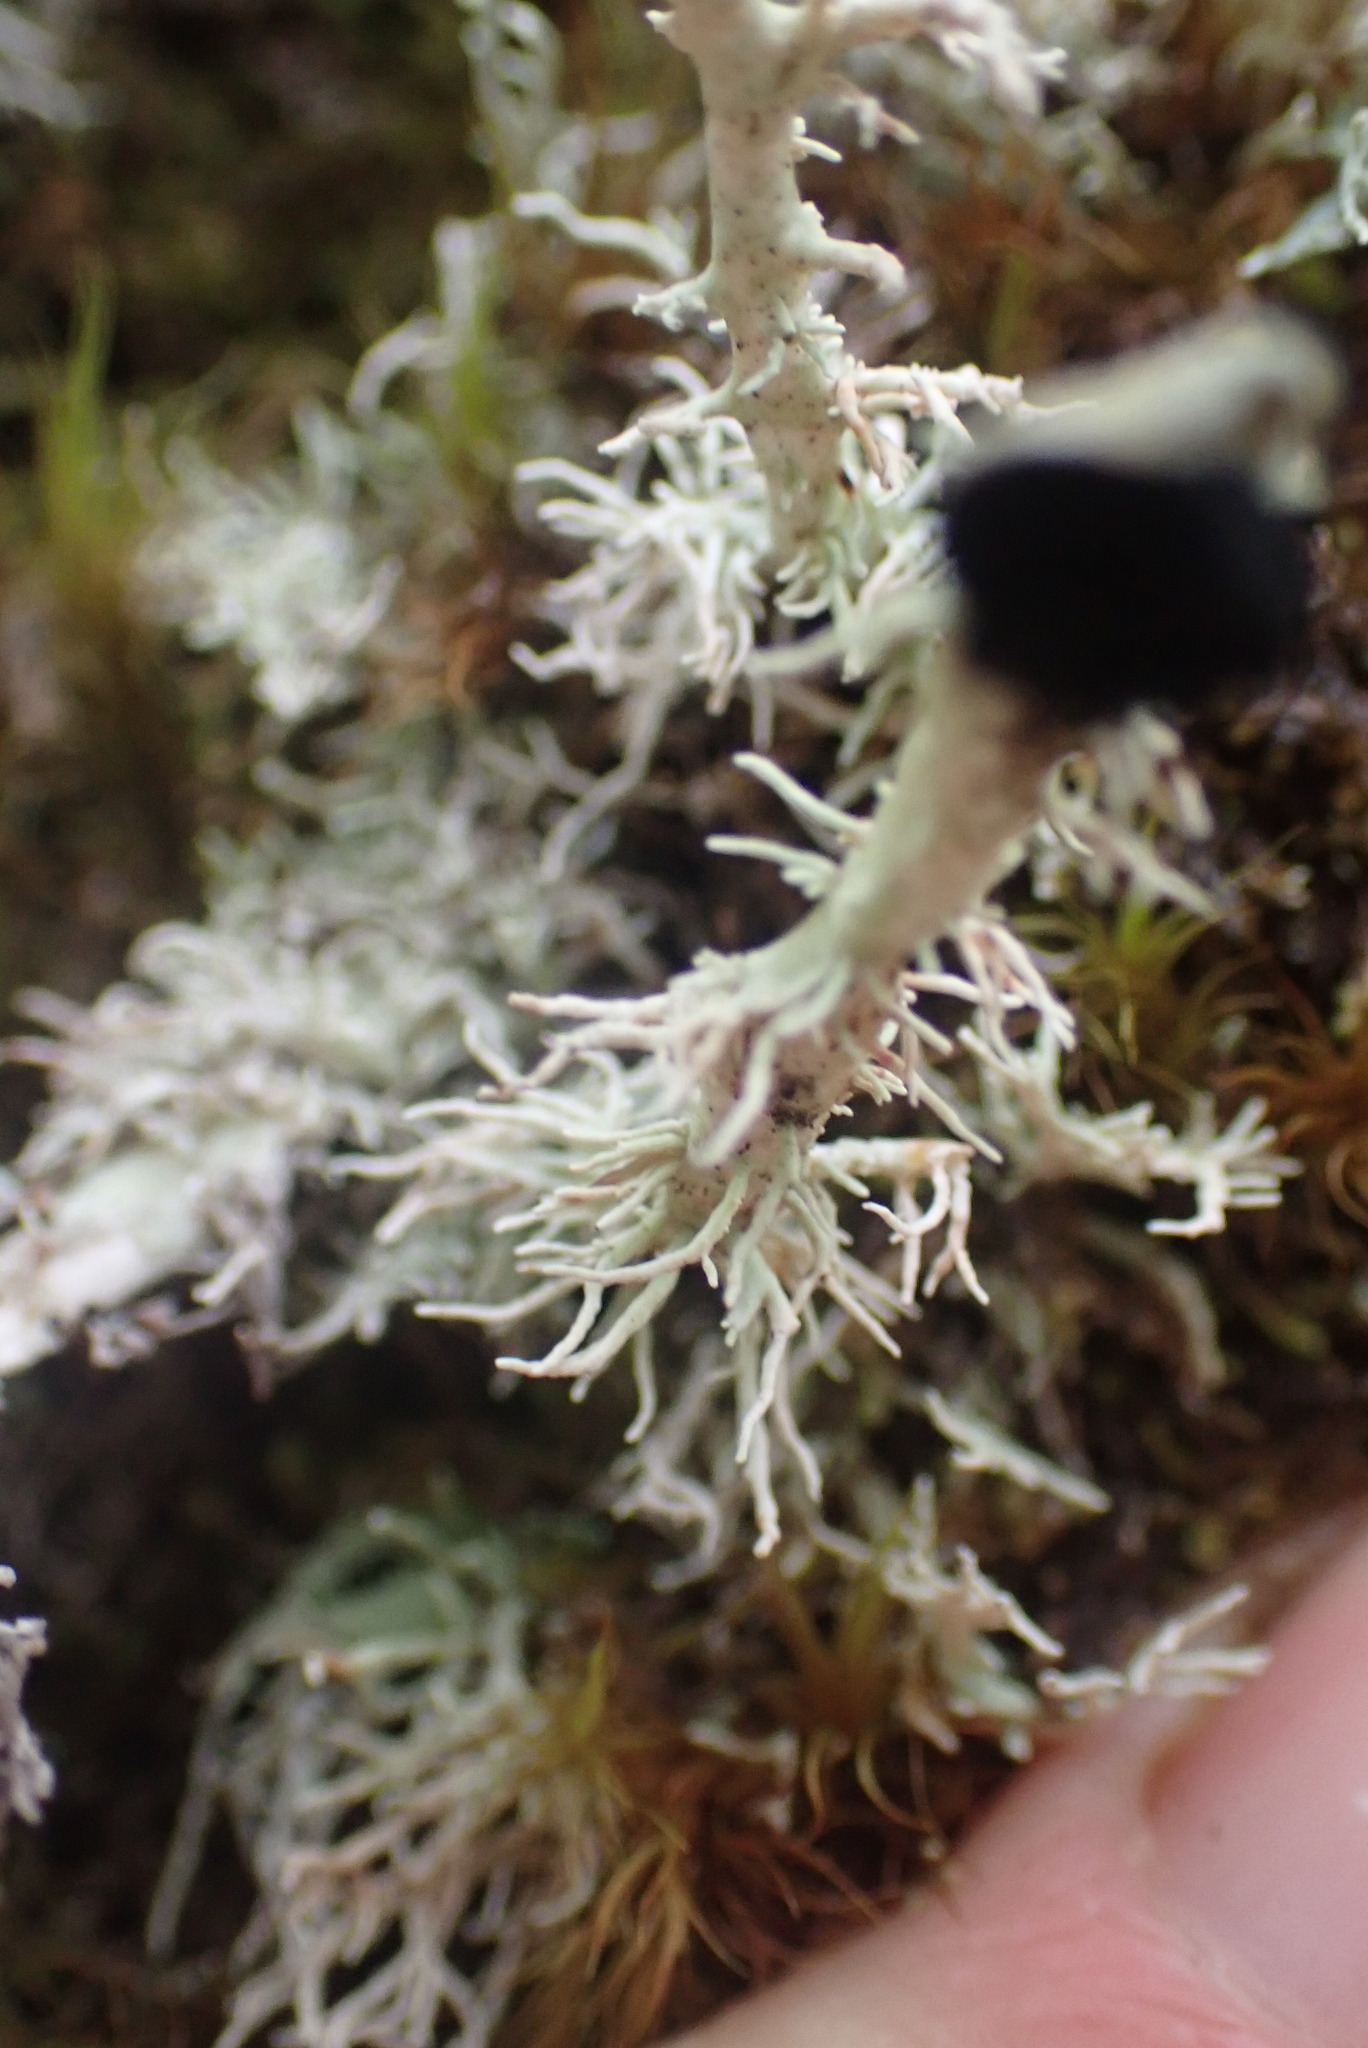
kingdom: Fungi
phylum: Ascomycota
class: Lecanoromycetes
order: Lecanorales
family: Sphaerophoraceae
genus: Bunodophoron
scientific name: Bunodophoron melanocarpum
